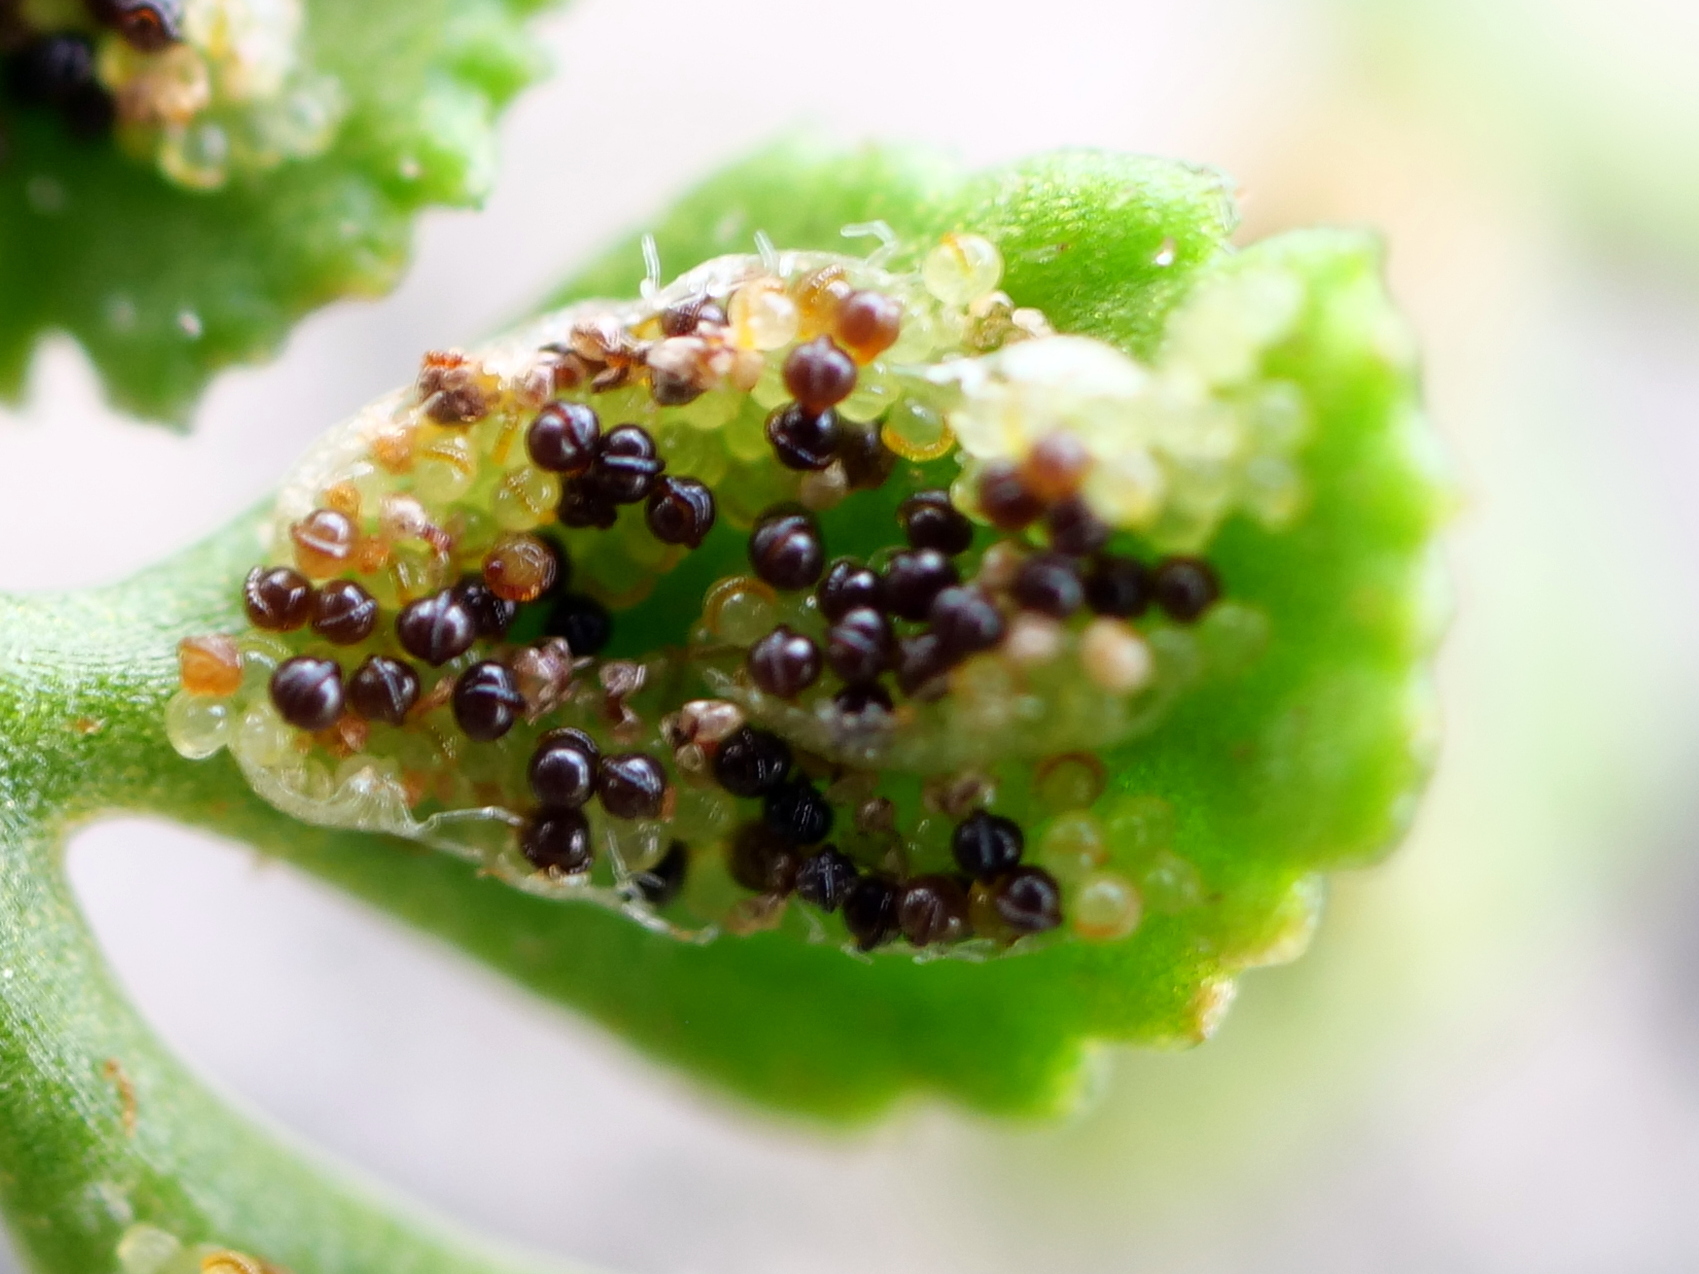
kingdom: Plantae
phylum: Tracheophyta
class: Polypodiopsida
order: Polypodiales
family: Aspleniaceae
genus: Asplenium
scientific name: Asplenium ruta-muraria
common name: Wall-rue
